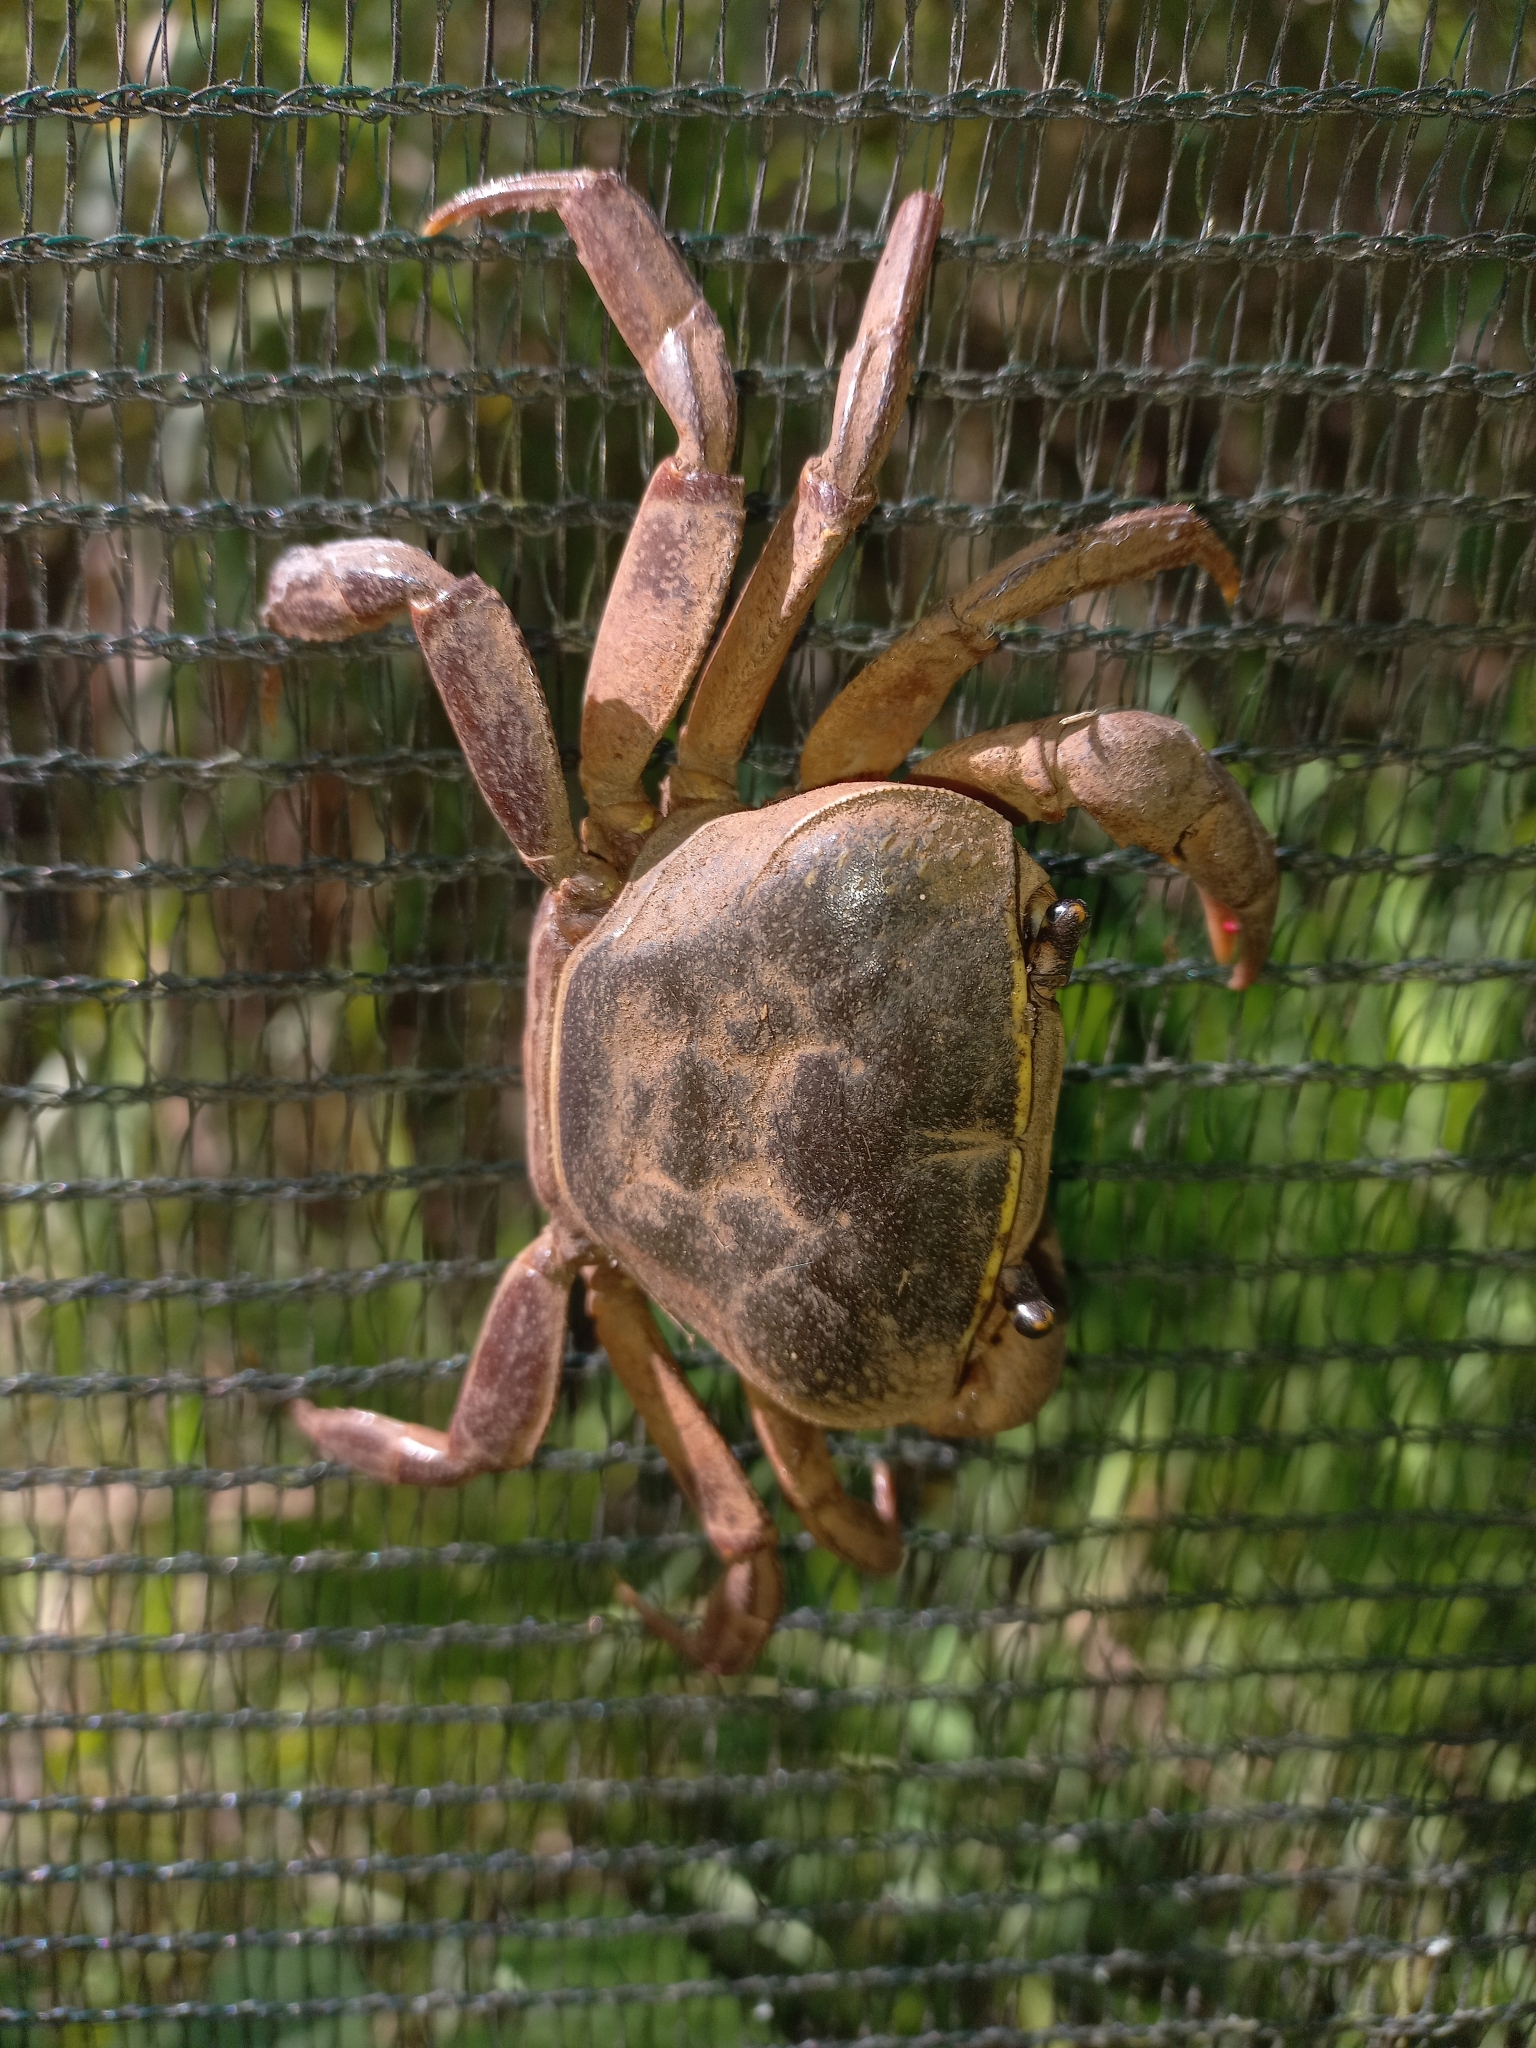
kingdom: Animalia
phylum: Arthropoda
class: Malacostraca
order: Decapoda
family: Potamonautidae
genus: Potamonautes
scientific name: Potamonautes sidneyi
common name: Natal river crab
